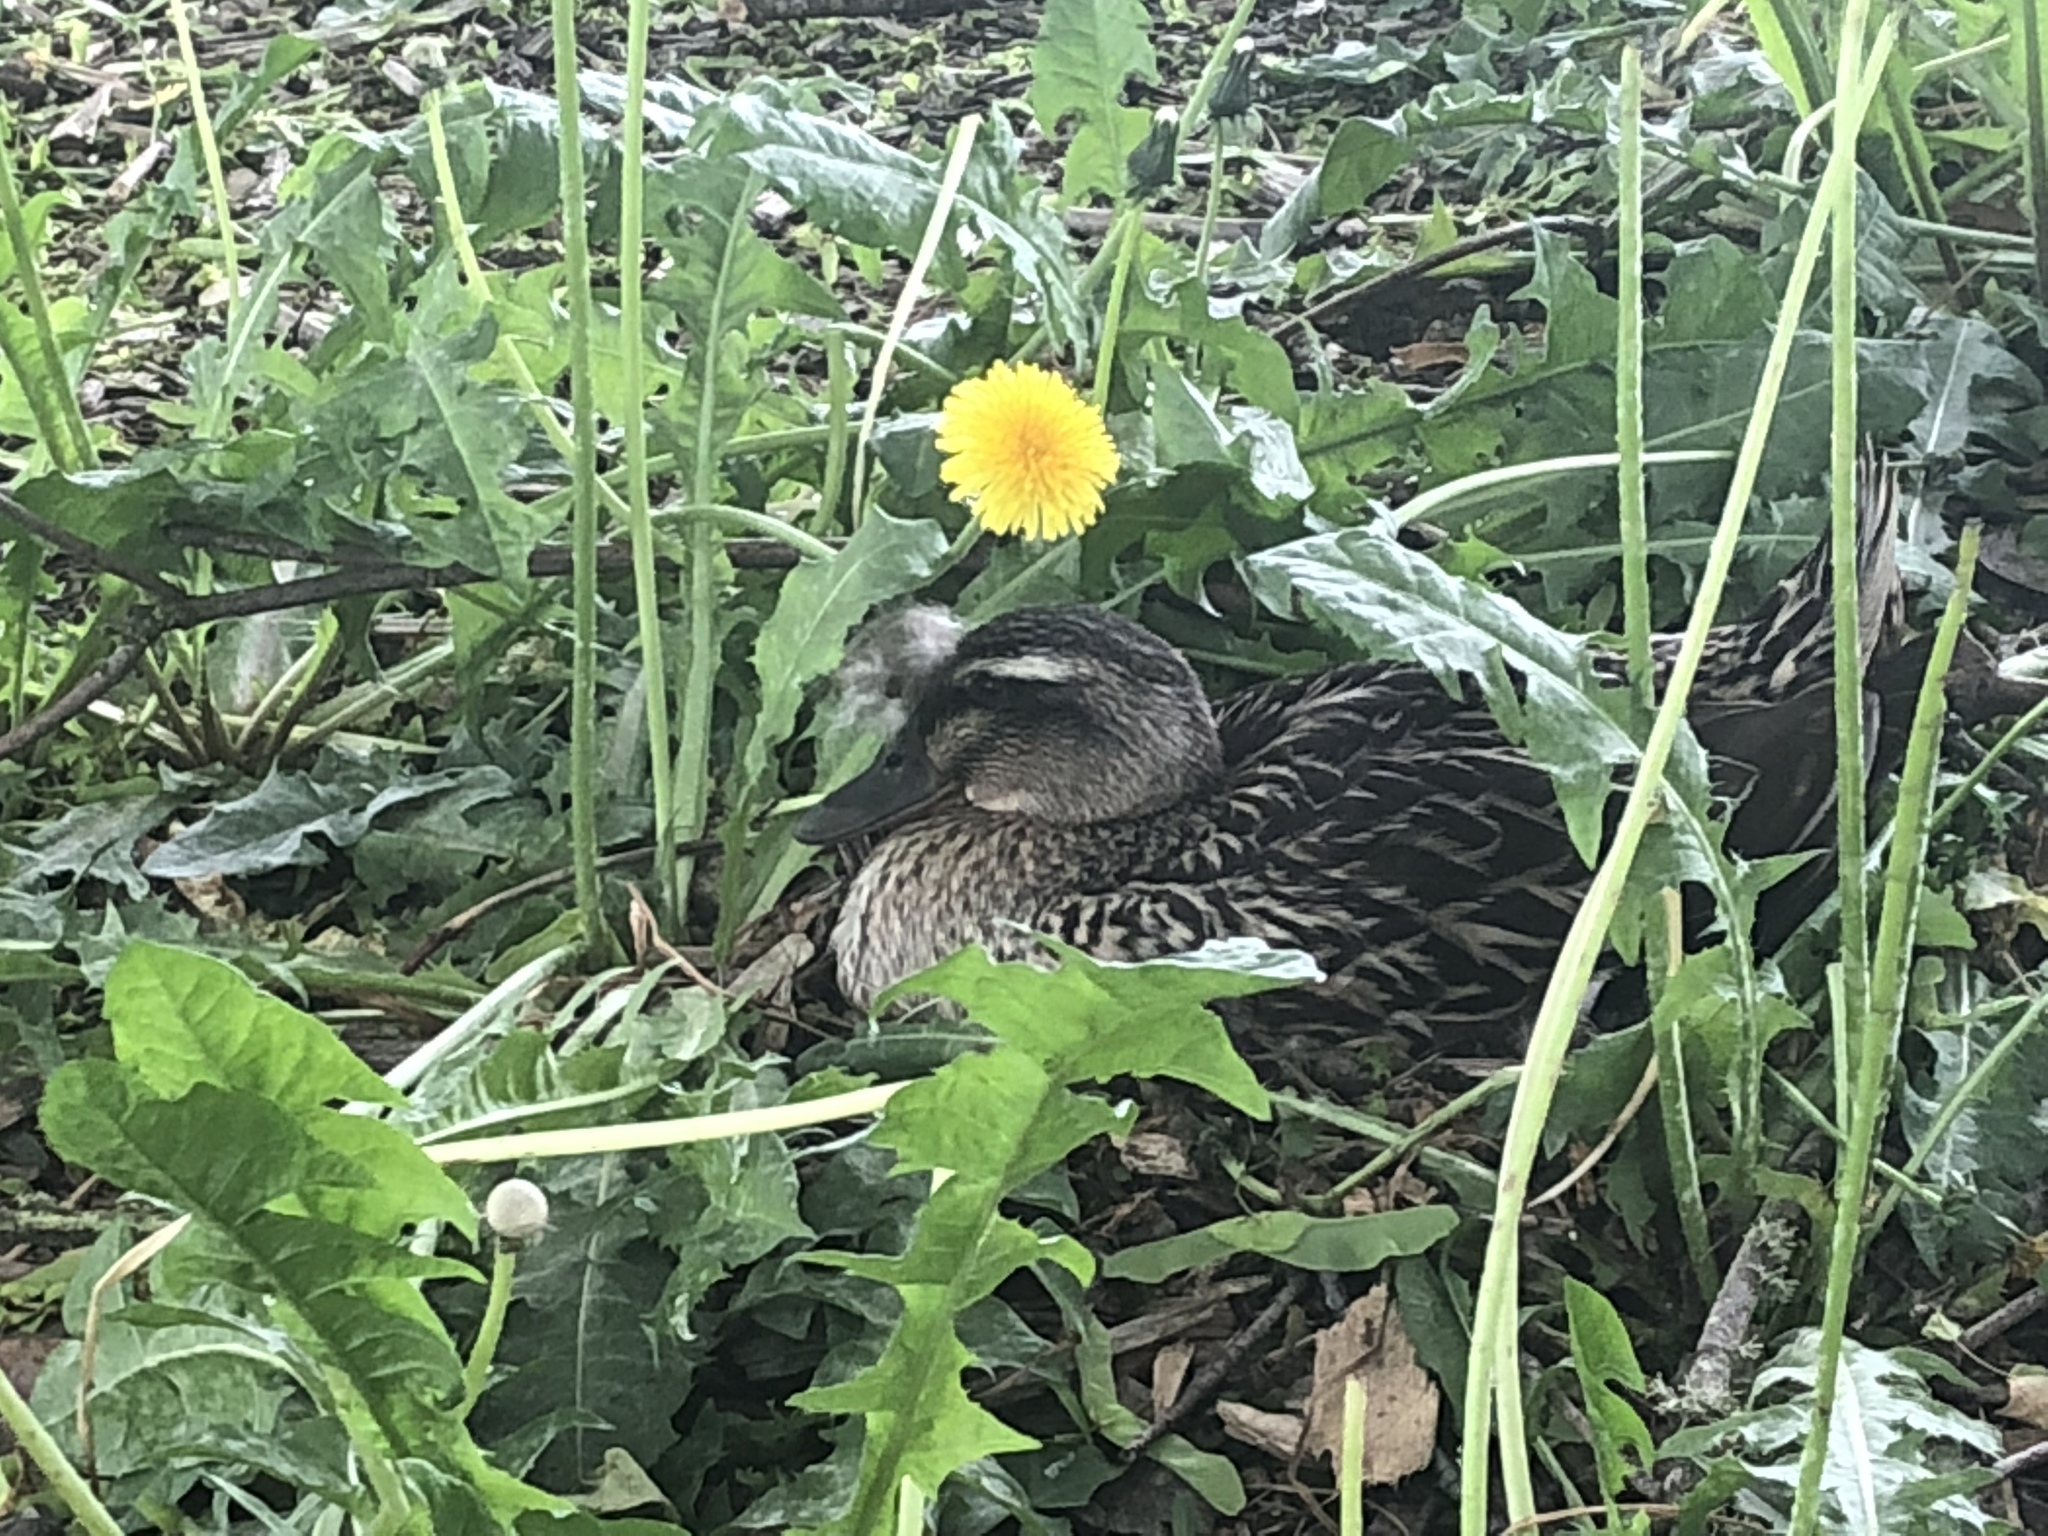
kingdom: Animalia
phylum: Chordata
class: Aves
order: Anseriformes
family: Anatidae
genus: Anas
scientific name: Anas platyrhynchos
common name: Mallard
